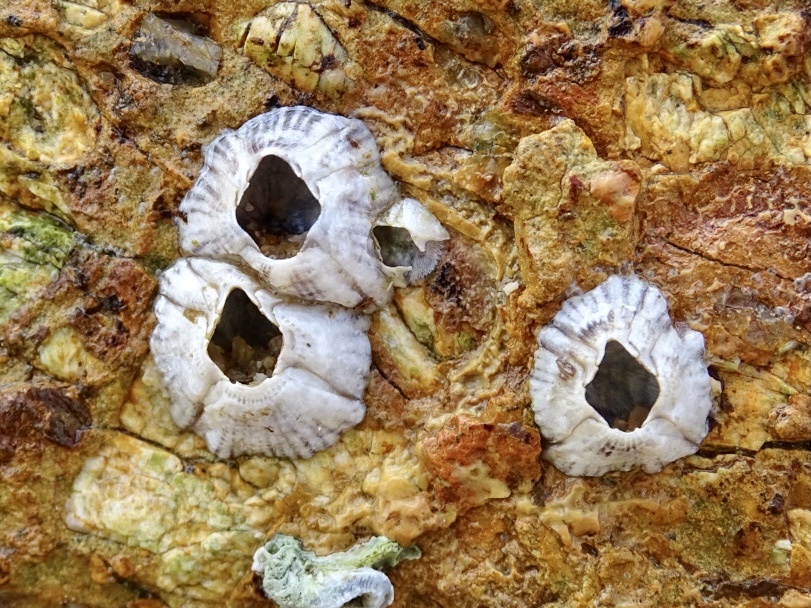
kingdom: Animalia
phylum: Arthropoda
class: Maxillopoda
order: Sessilia
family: Balanidae
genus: Amphibalanus
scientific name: Amphibalanus amphitrite
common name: Striped acorn barnacle
